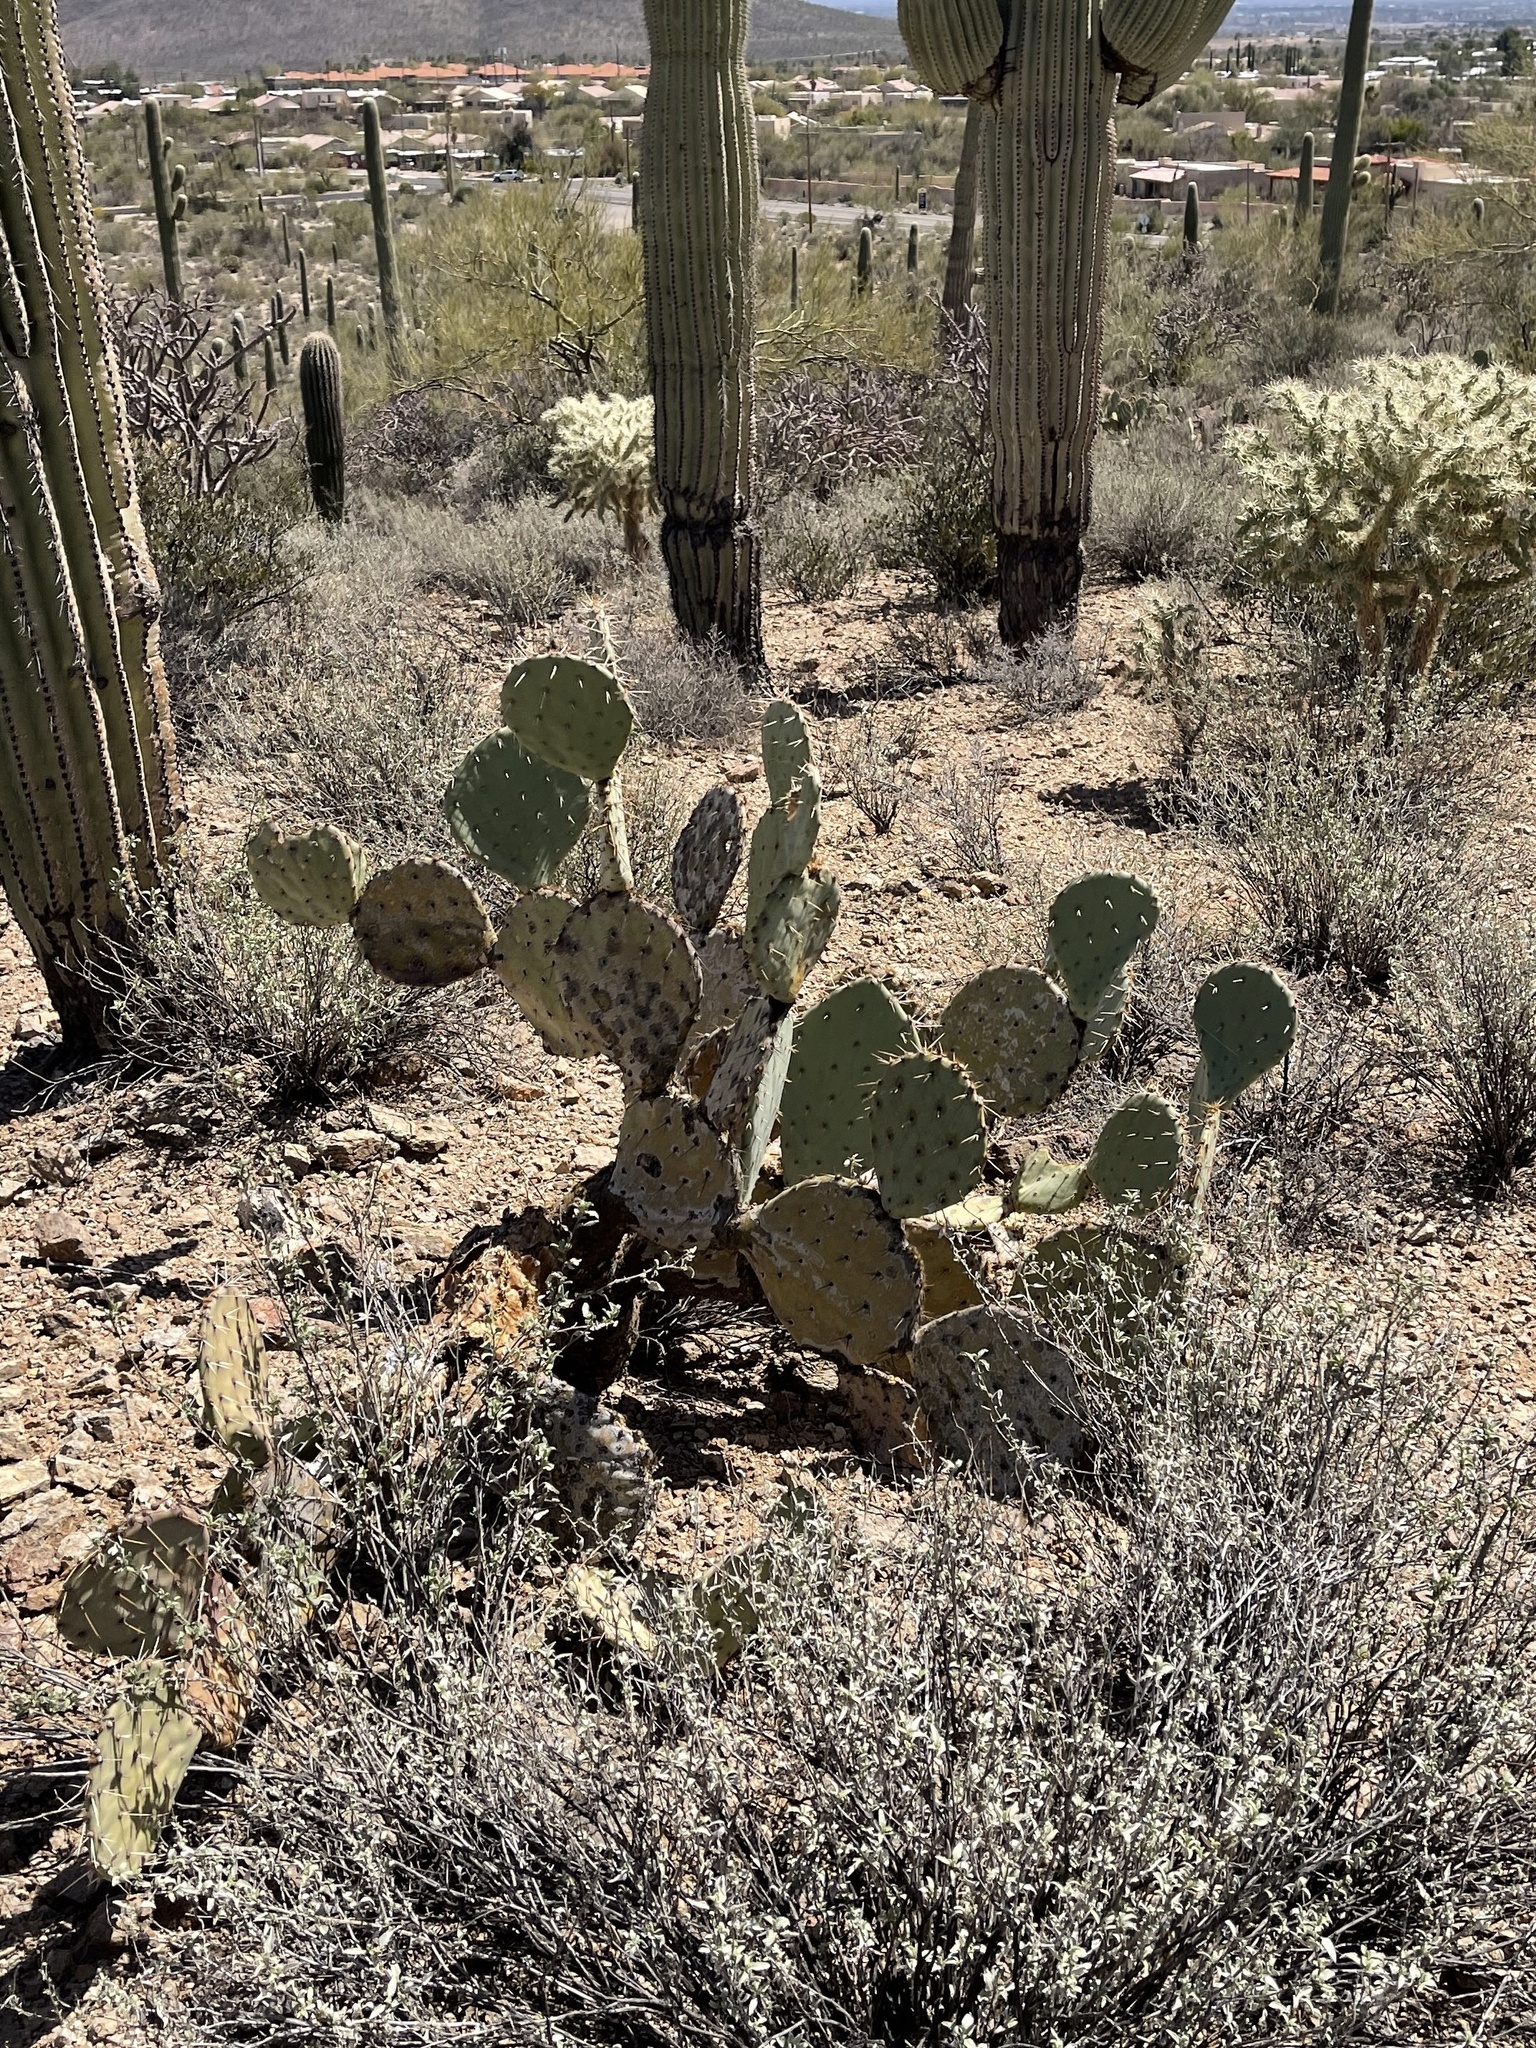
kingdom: Plantae
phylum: Tracheophyta
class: Magnoliopsida
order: Caryophyllales
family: Cactaceae
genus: Opuntia
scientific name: Opuntia chlorotica
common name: Dollar-joint prickly-pear
